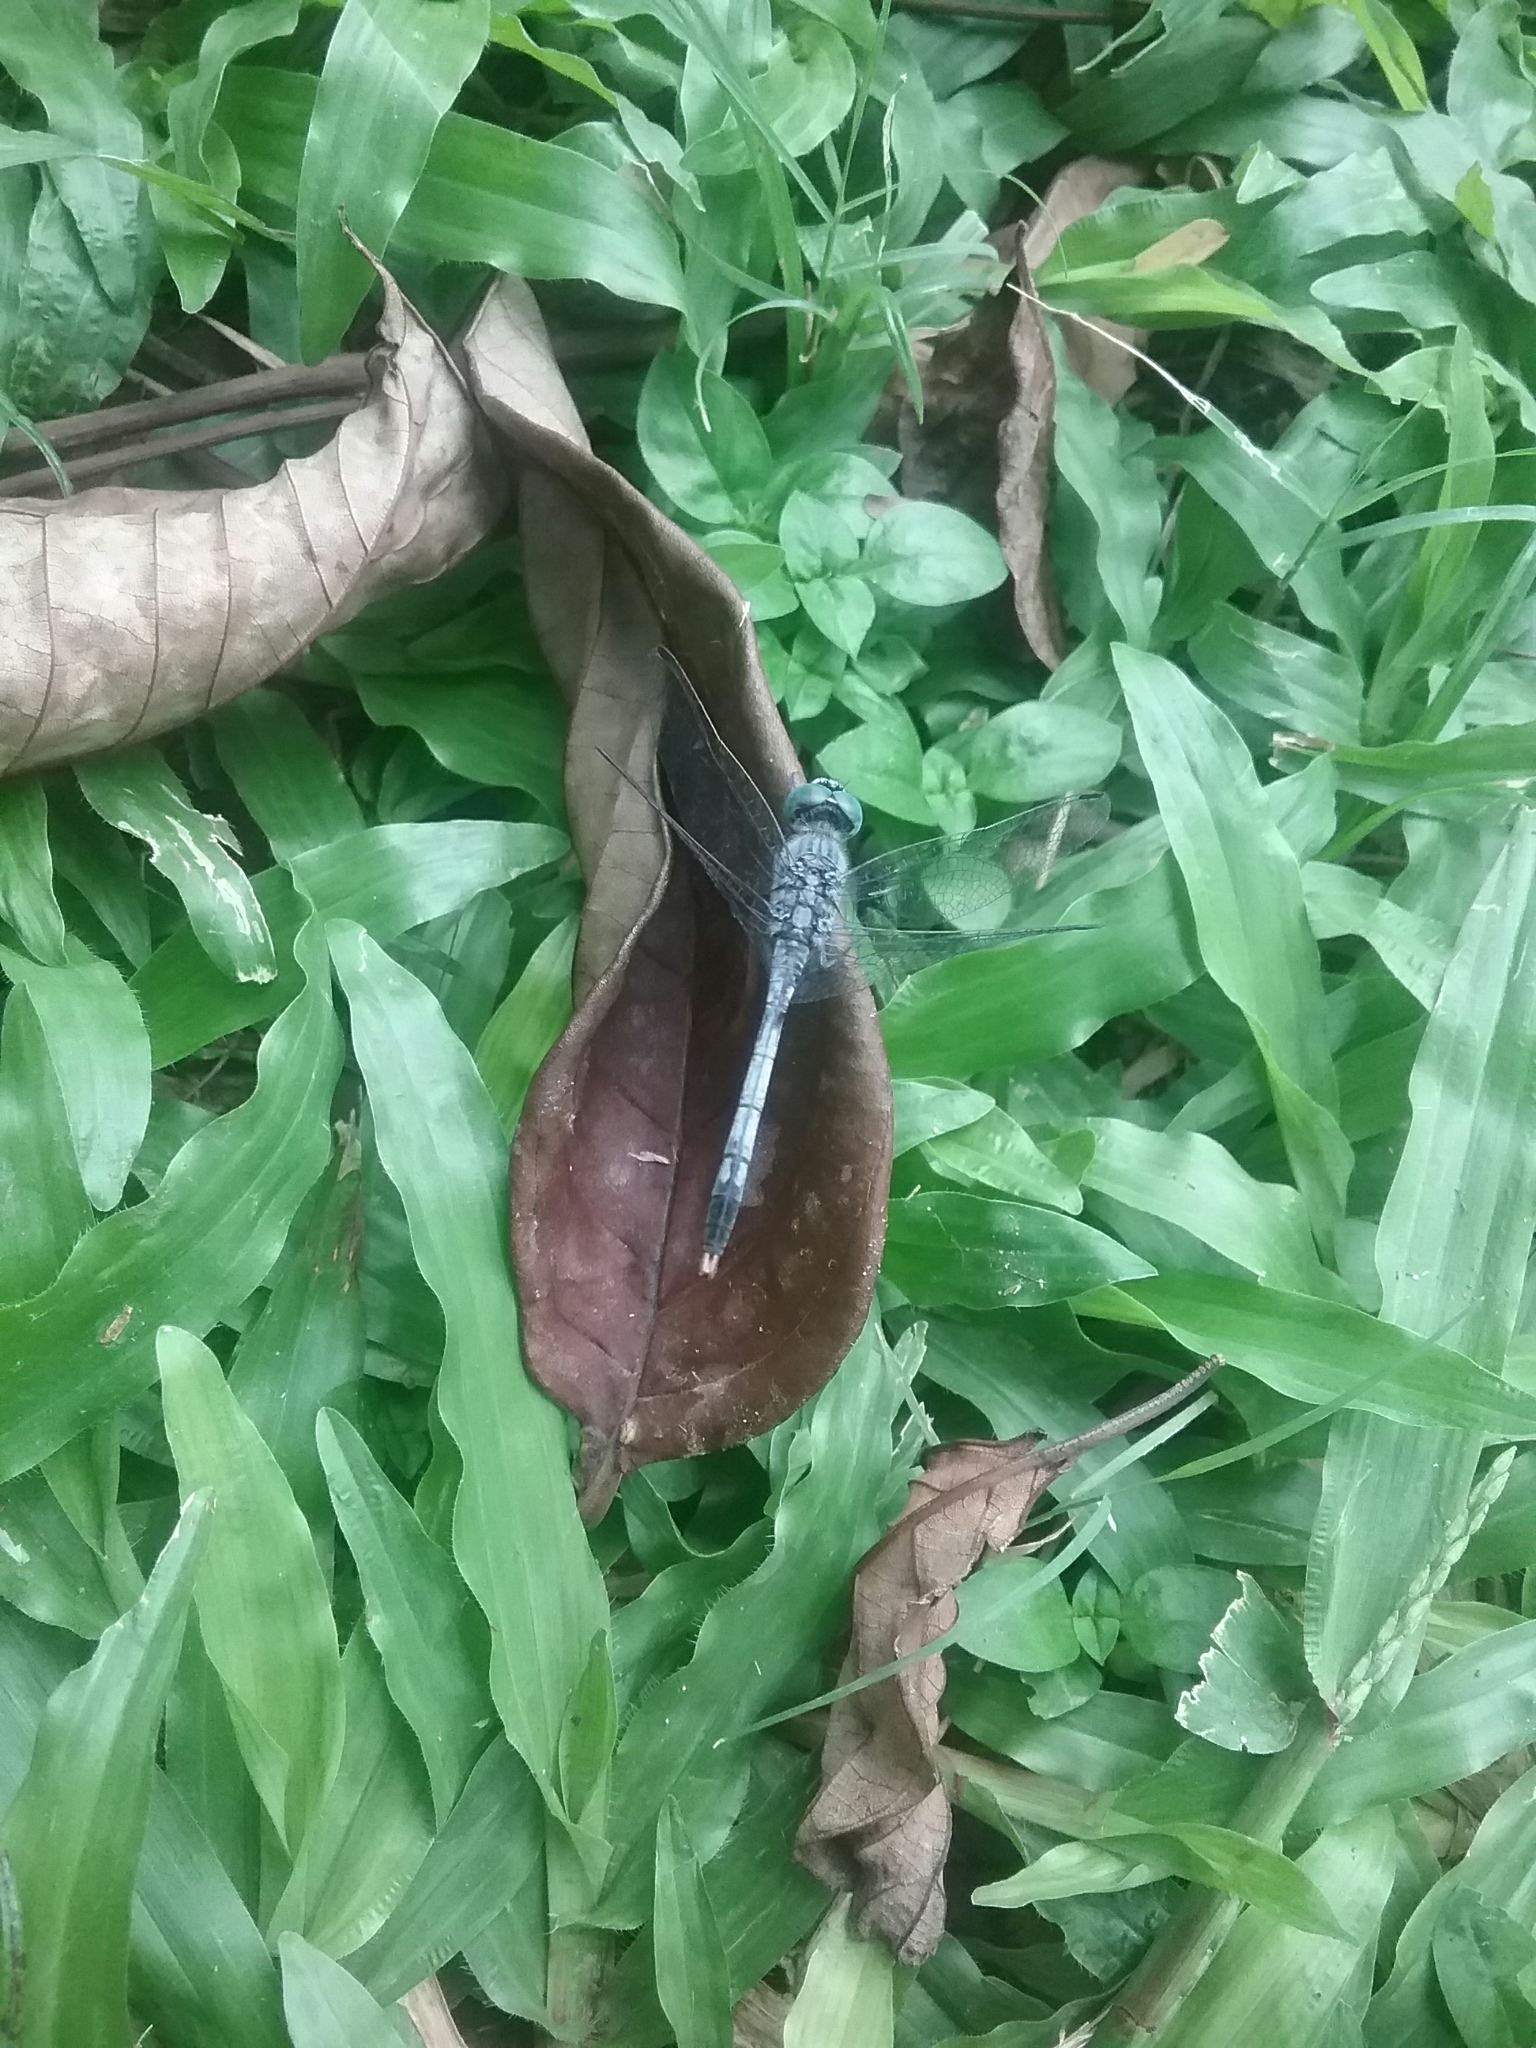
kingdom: Animalia
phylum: Arthropoda
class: Insecta
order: Odonata
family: Libellulidae
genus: Diplacodes
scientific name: Diplacodes trivialis
